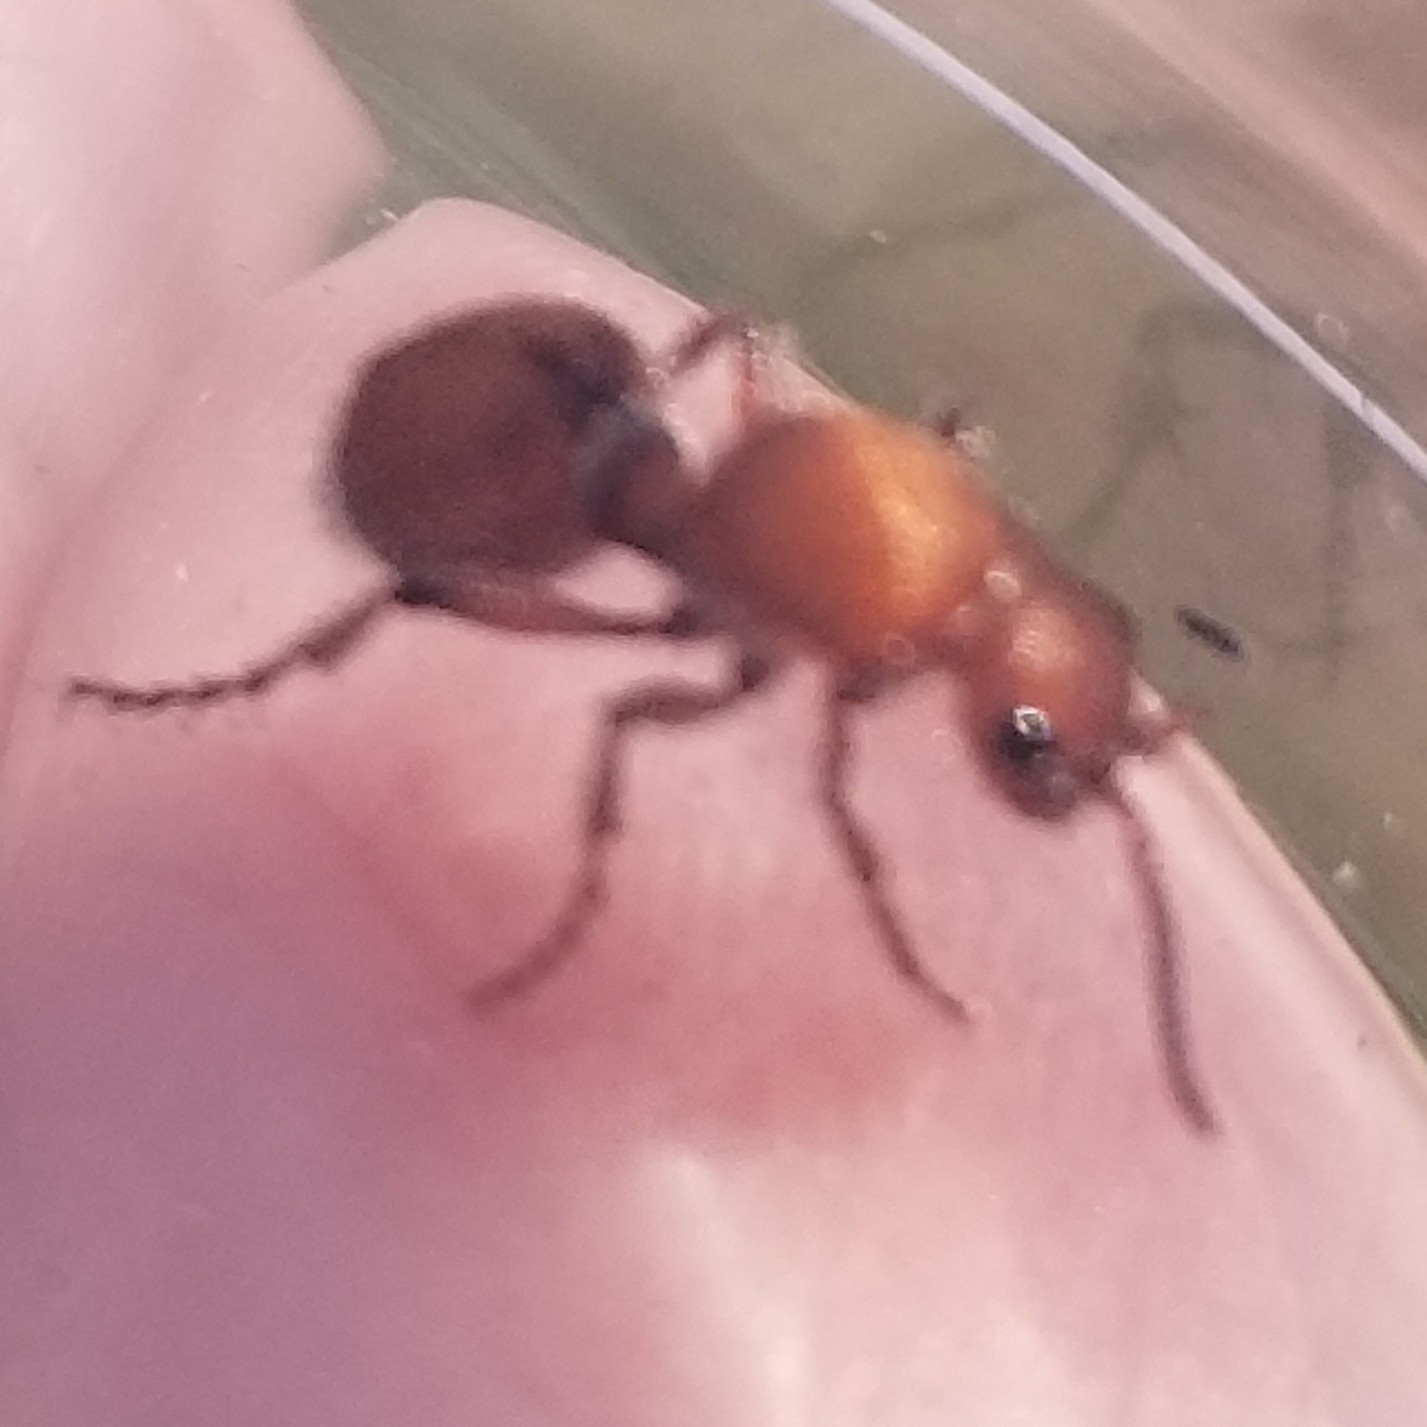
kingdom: Animalia
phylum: Arthropoda
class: Insecta
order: Hymenoptera
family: Mutillidae
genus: Dasymutilla
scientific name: Dasymutilla
